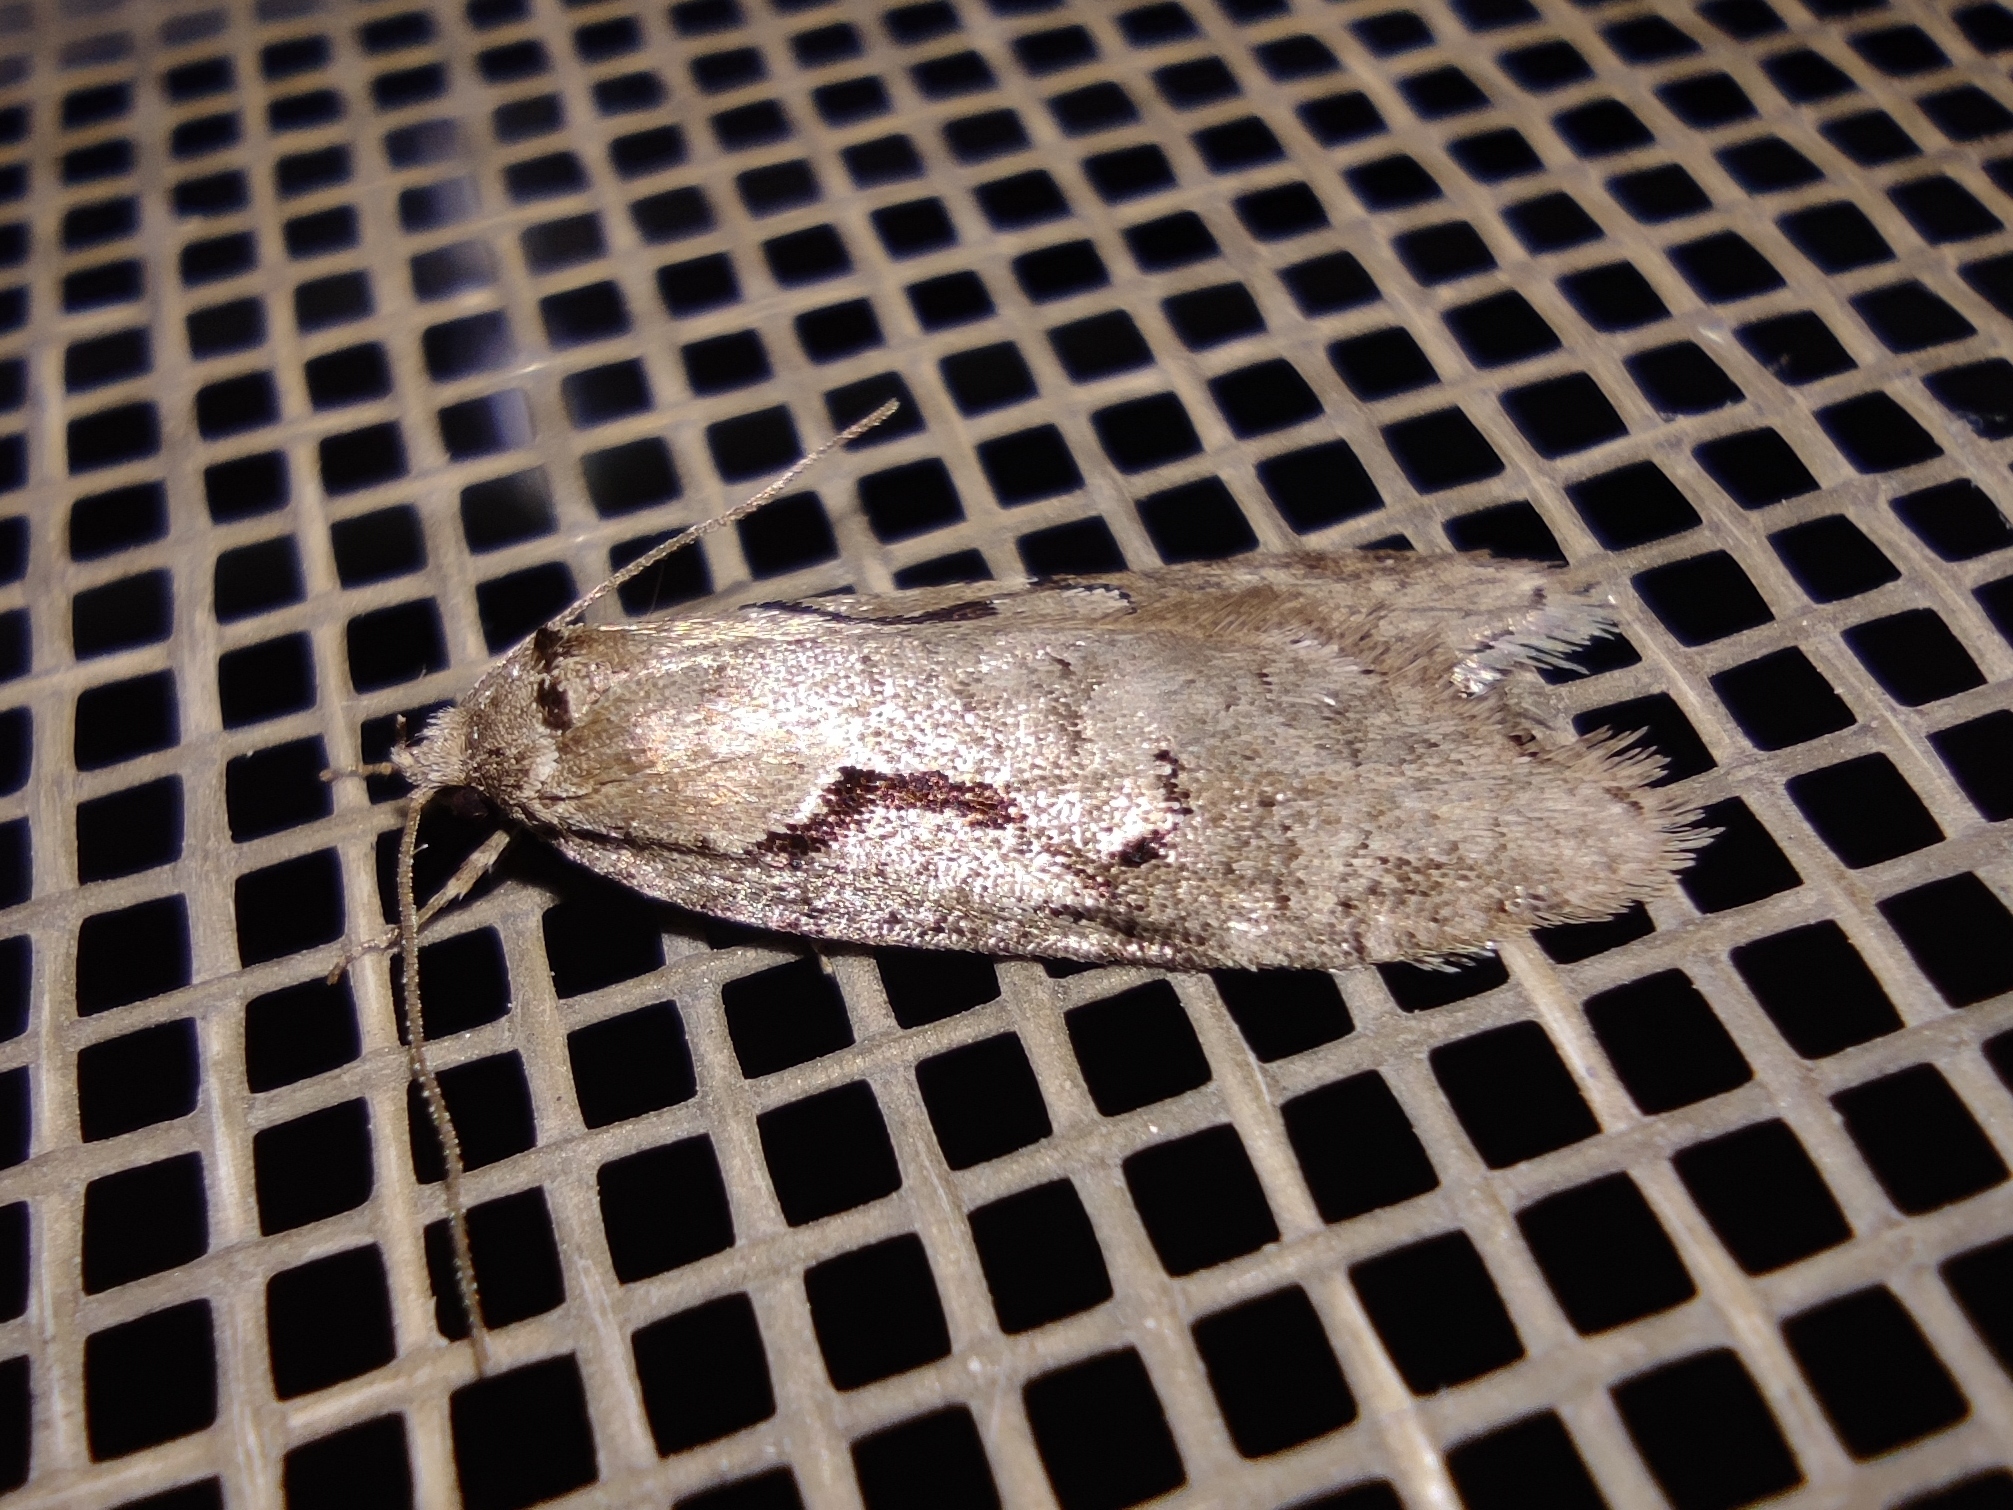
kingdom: Animalia
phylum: Arthropoda
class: Insecta
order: Lepidoptera
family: Depressariidae
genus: Semioscopis
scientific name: Semioscopis steinkellneriana
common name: Dawn flat-body
